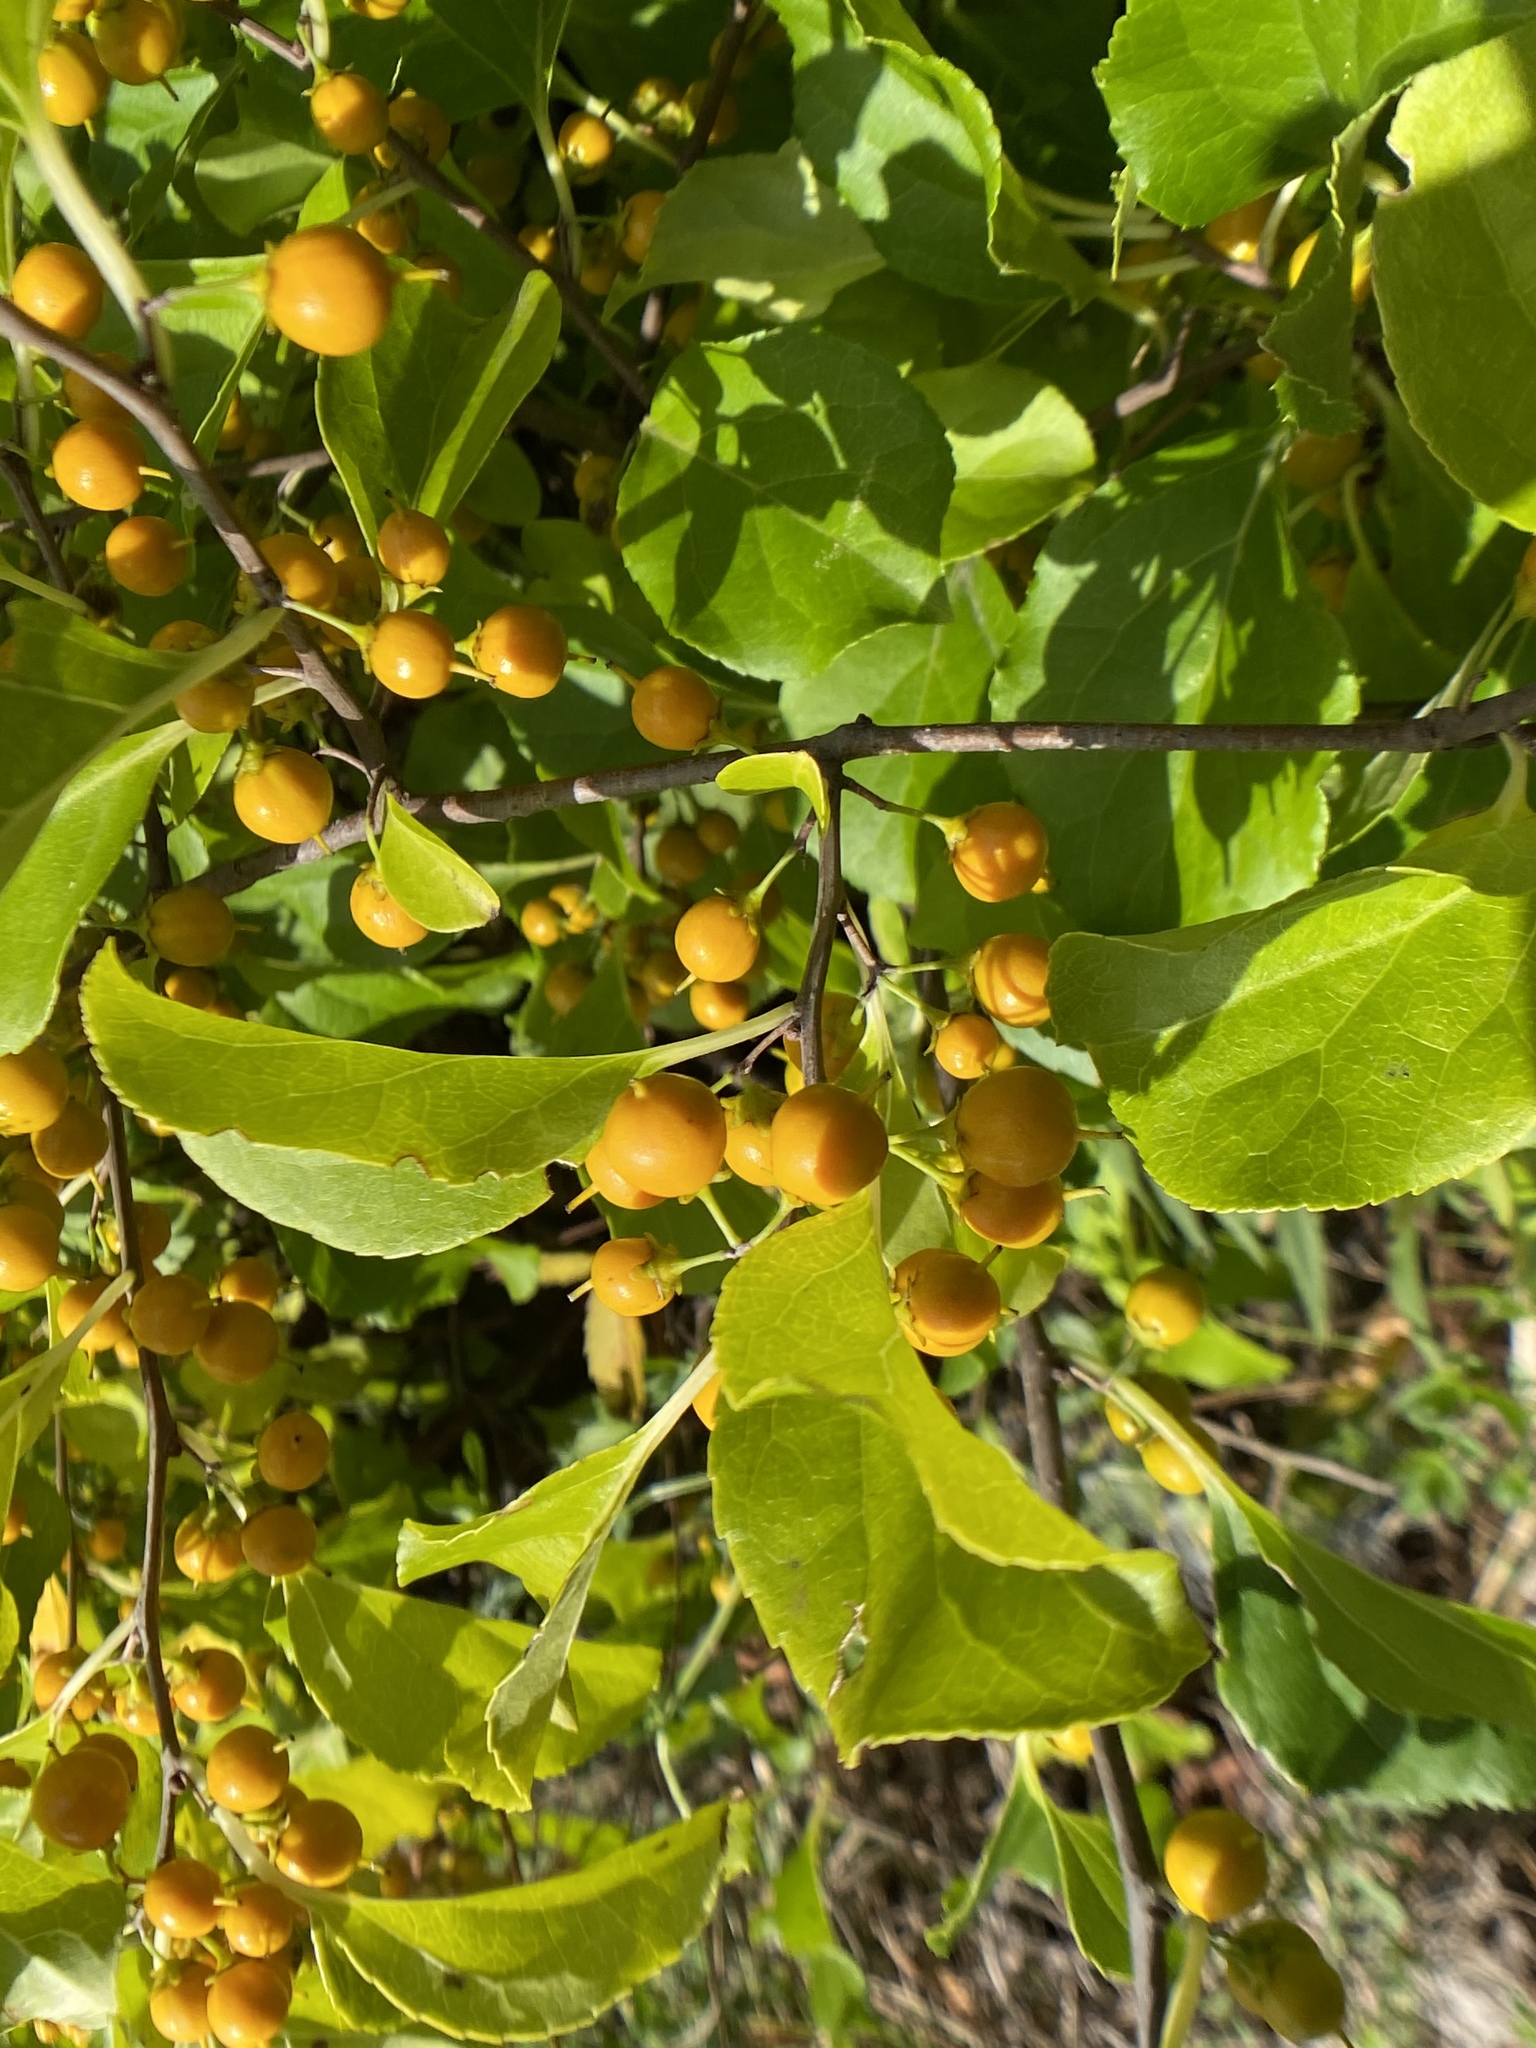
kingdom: Plantae
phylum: Tracheophyta
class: Magnoliopsida
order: Celastrales
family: Celastraceae
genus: Celastrus
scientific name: Celastrus orbiculatus
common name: Oriental bittersweet
